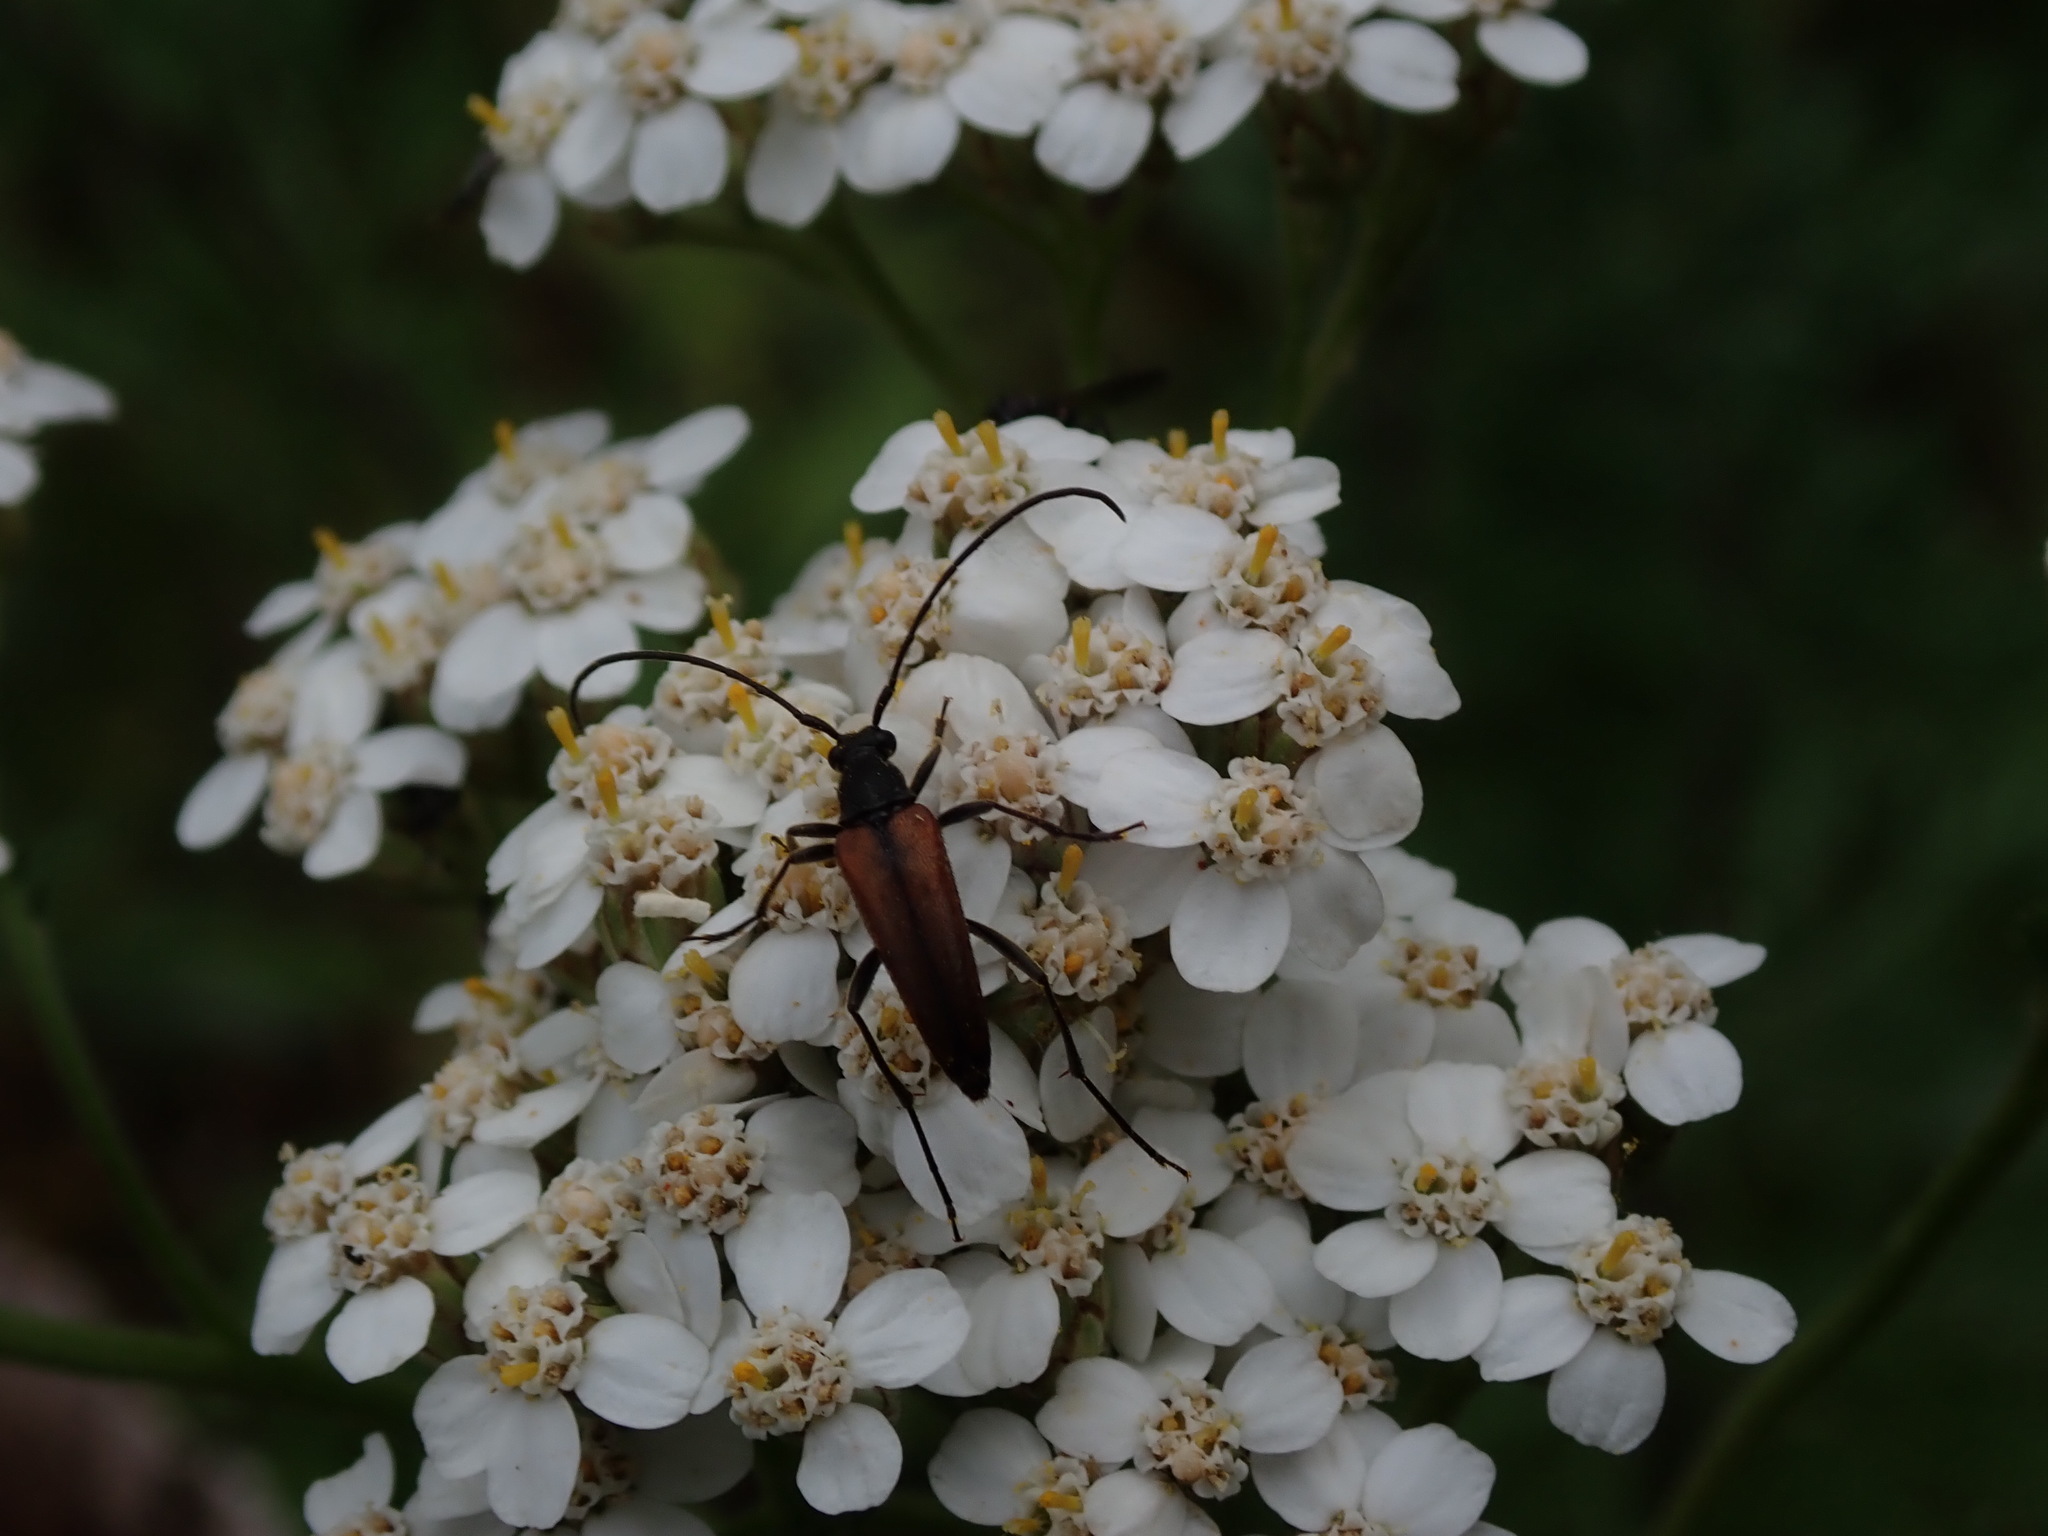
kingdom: Animalia
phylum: Arthropoda
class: Insecta
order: Coleoptera
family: Cerambycidae
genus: Stenurella
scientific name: Stenurella melanura
